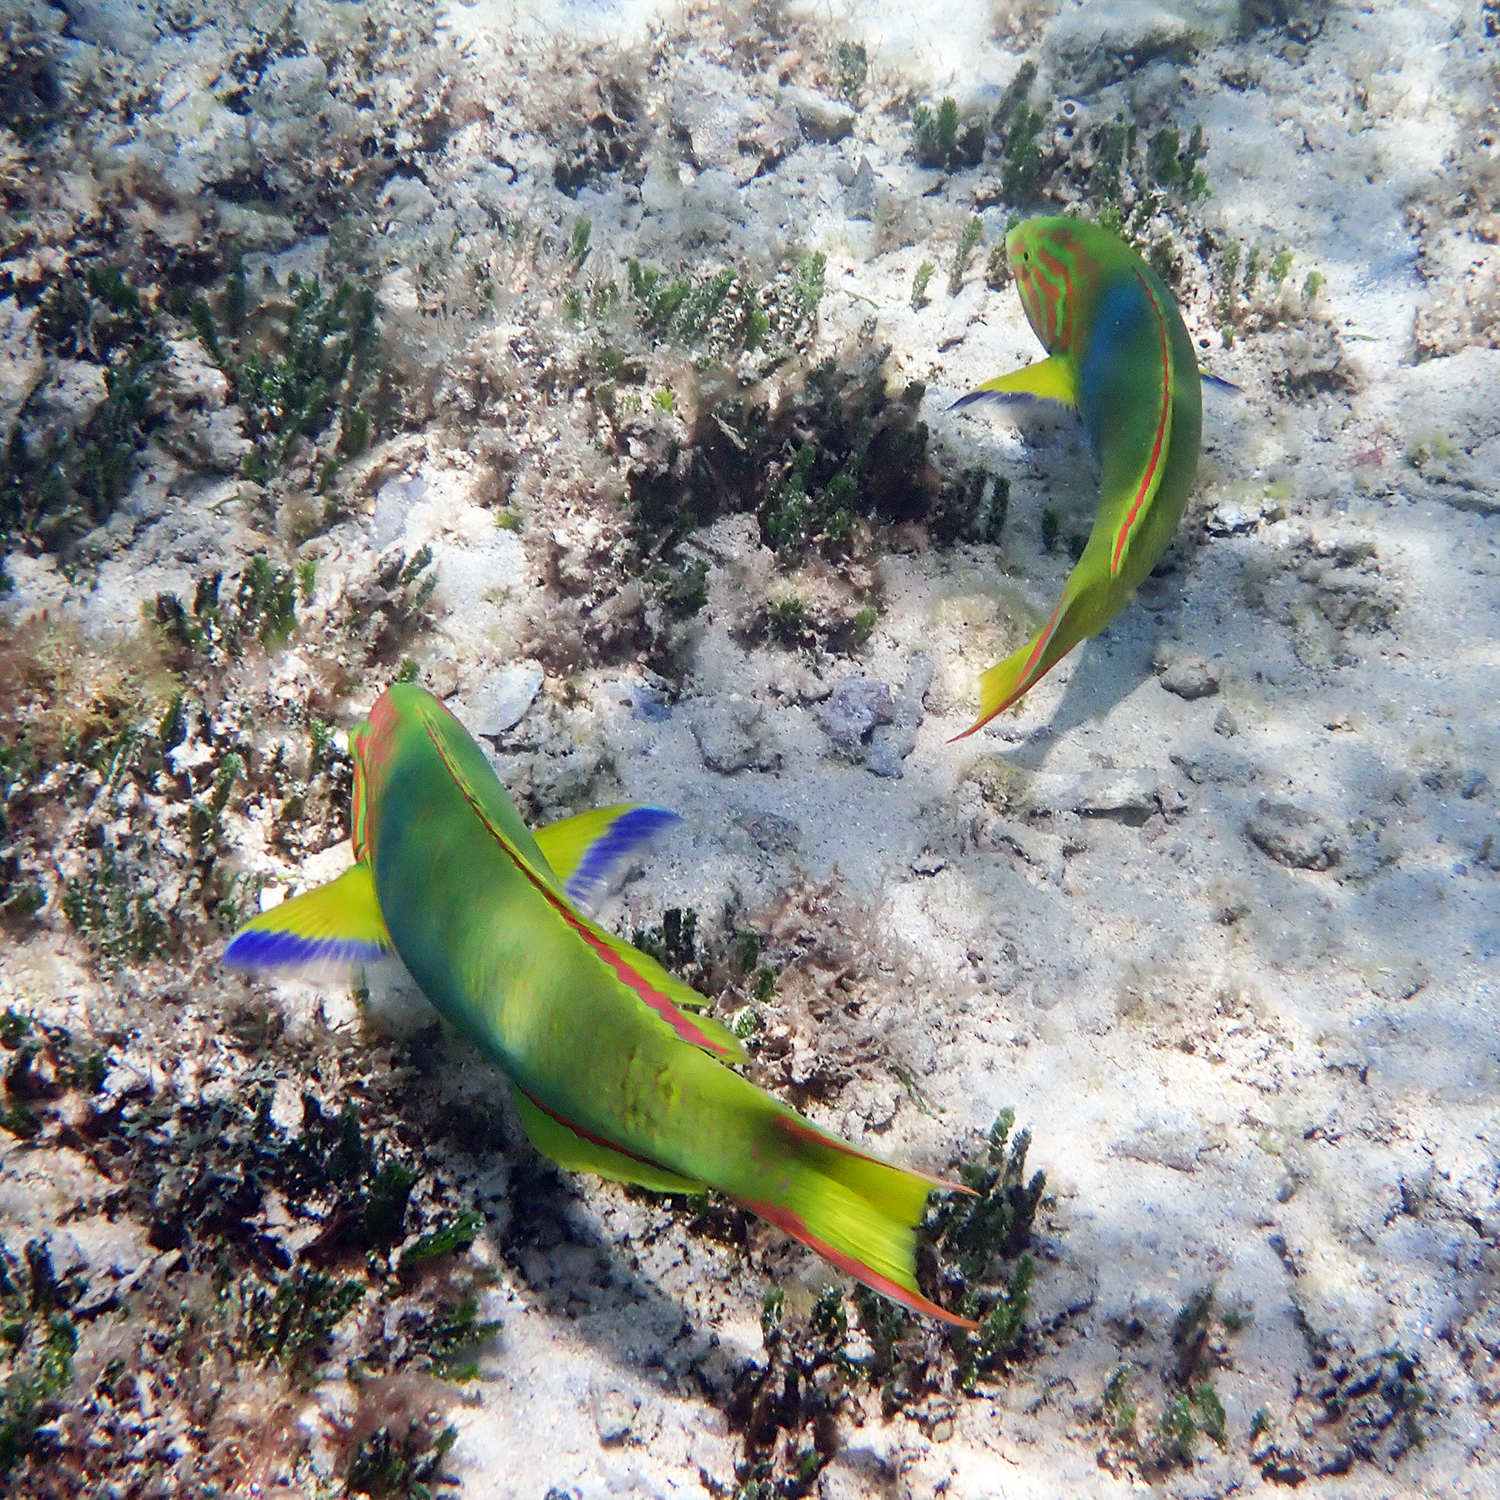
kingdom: Animalia
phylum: Chordata
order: Perciformes
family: Labridae
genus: Thalassoma
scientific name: Thalassoma lutescens
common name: Green moon wrasse
